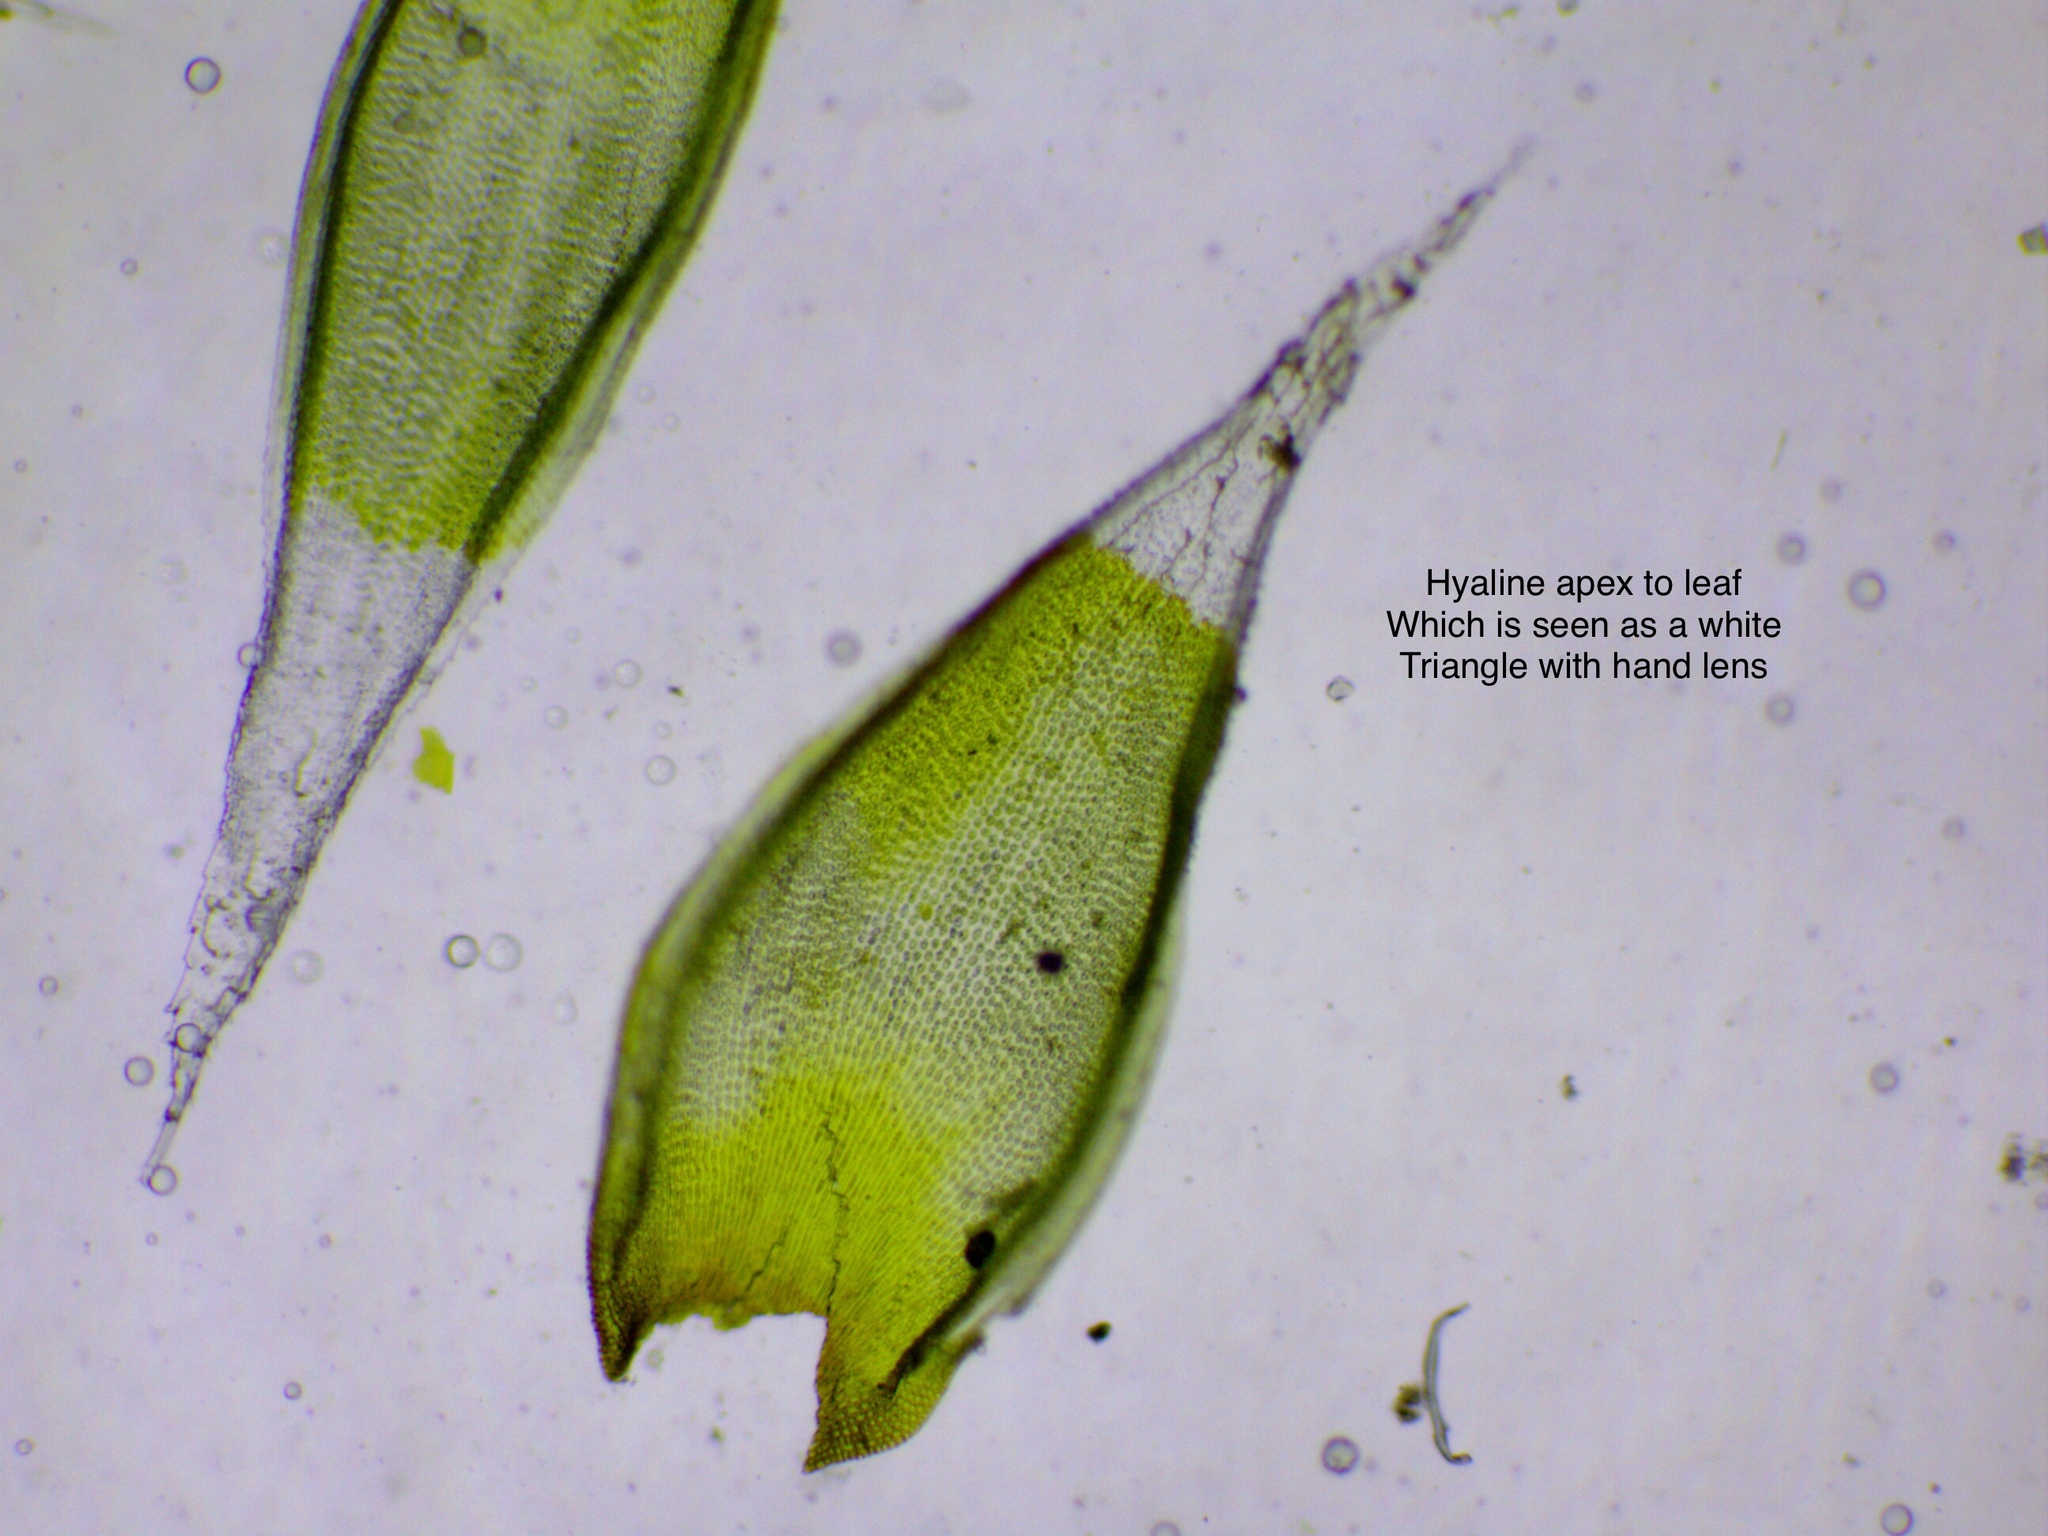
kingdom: Plantae
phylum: Bryophyta
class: Bryopsida
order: Hedwigiales
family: Hedwigiaceae
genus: Hedwigia
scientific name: Hedwigia stellata
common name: Starry hoar-moss
